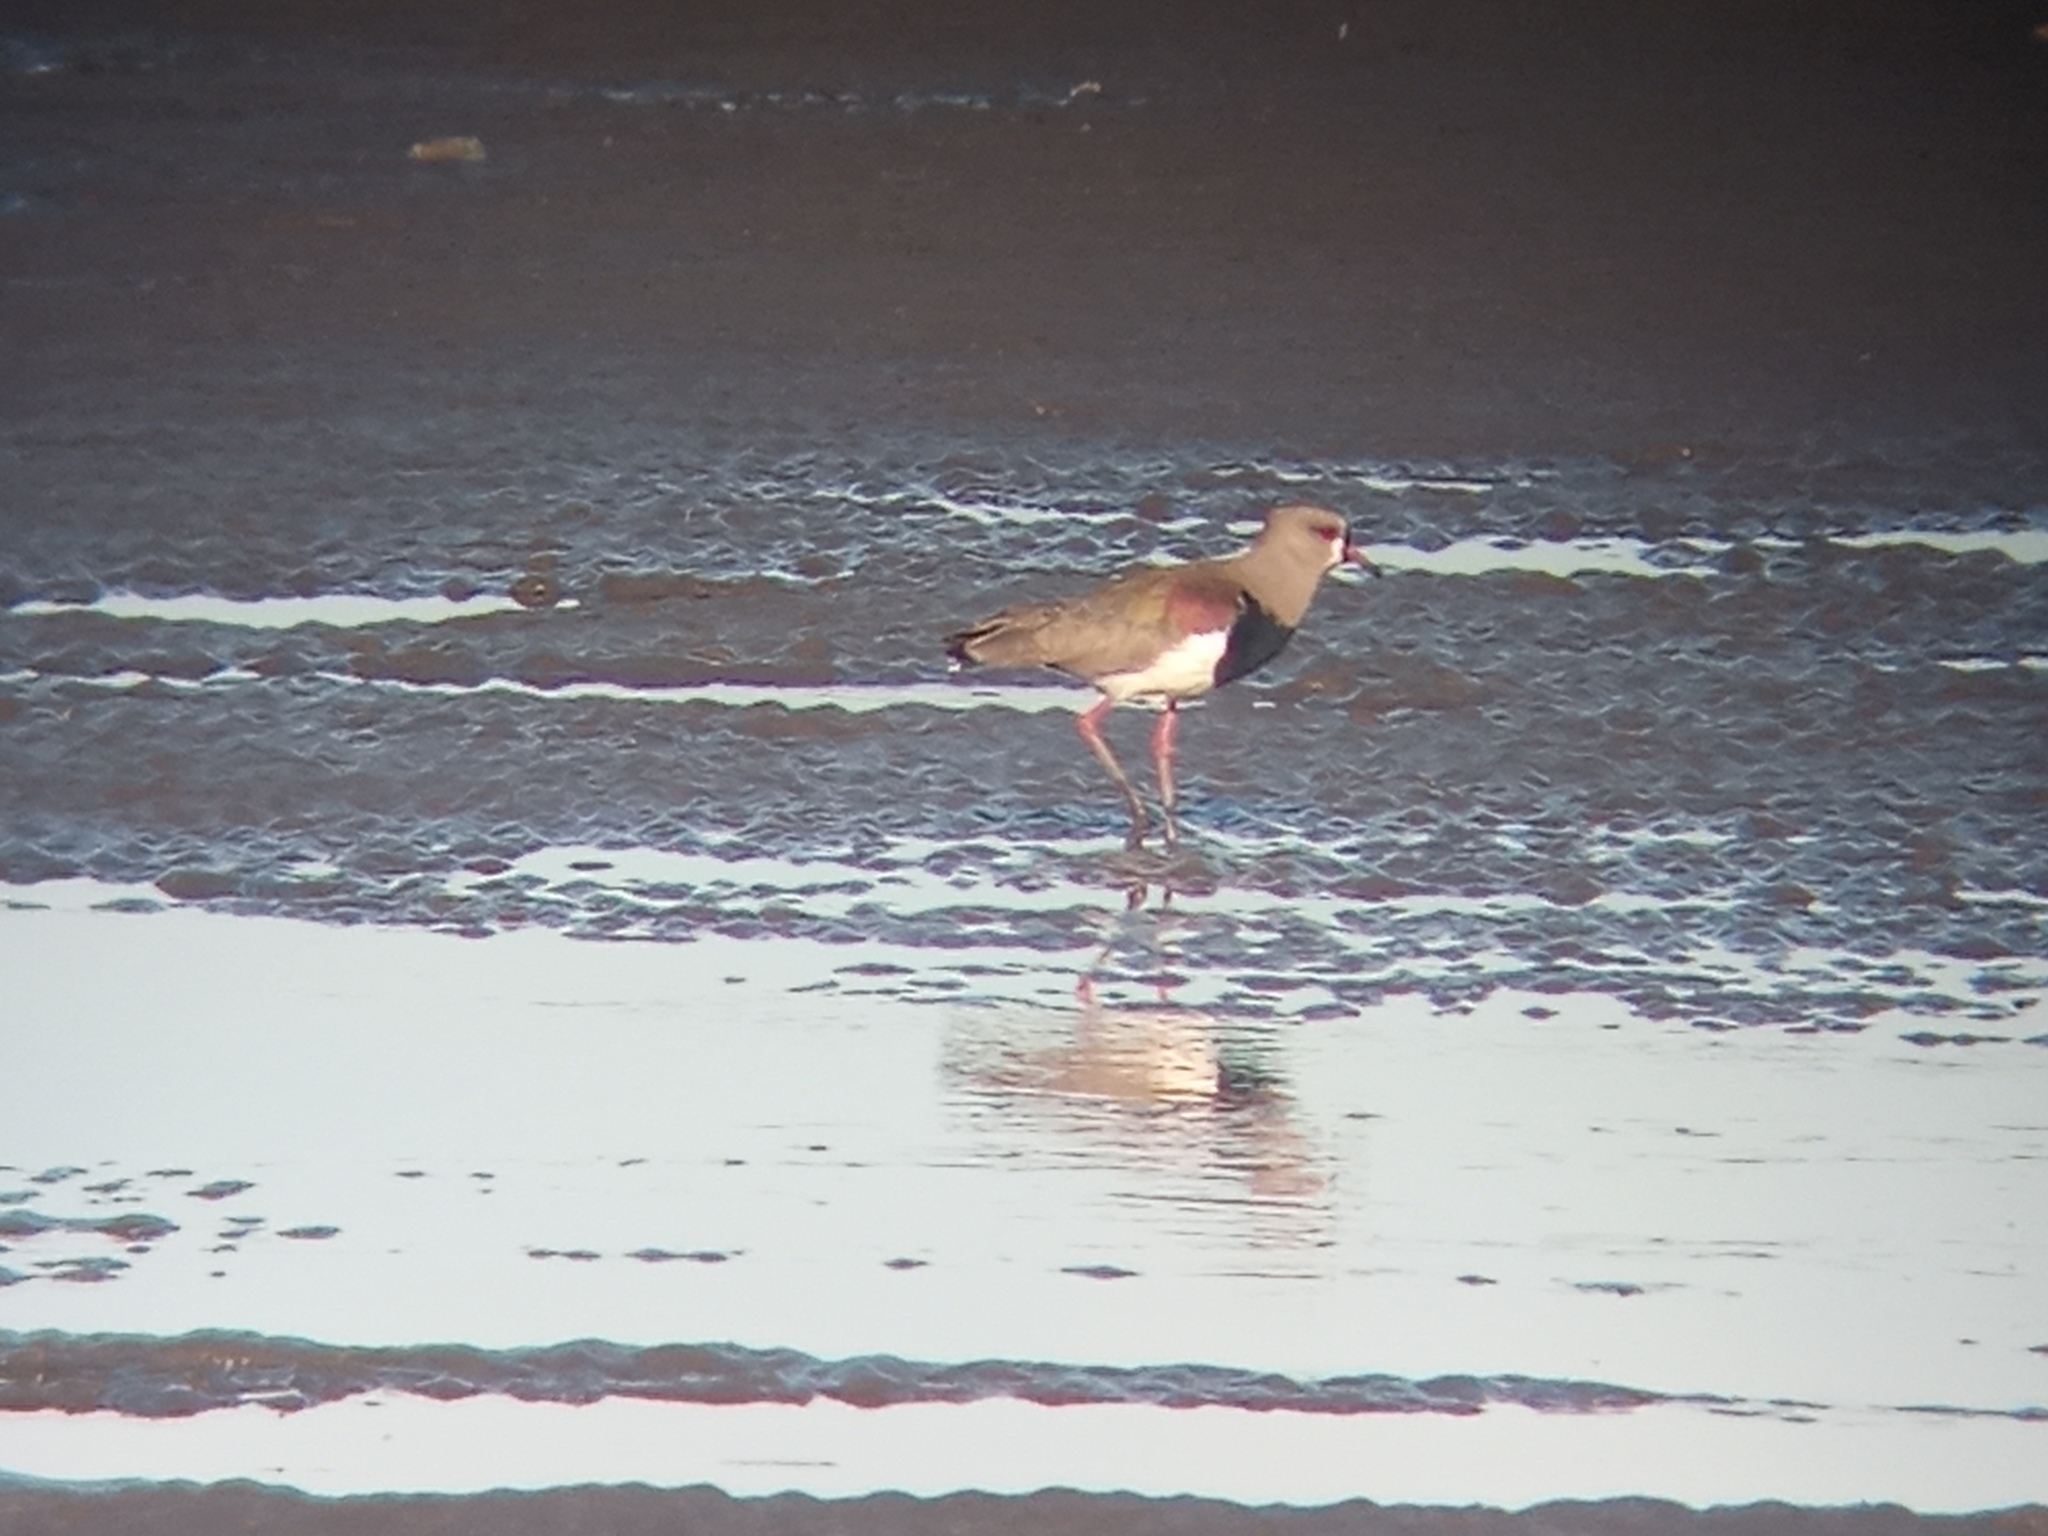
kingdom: Animalia
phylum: Chordata
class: Aves
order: Charadriiformes
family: Charadriidae
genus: Vanellus
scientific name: Vanellus chilensis
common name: Southern lapwing
